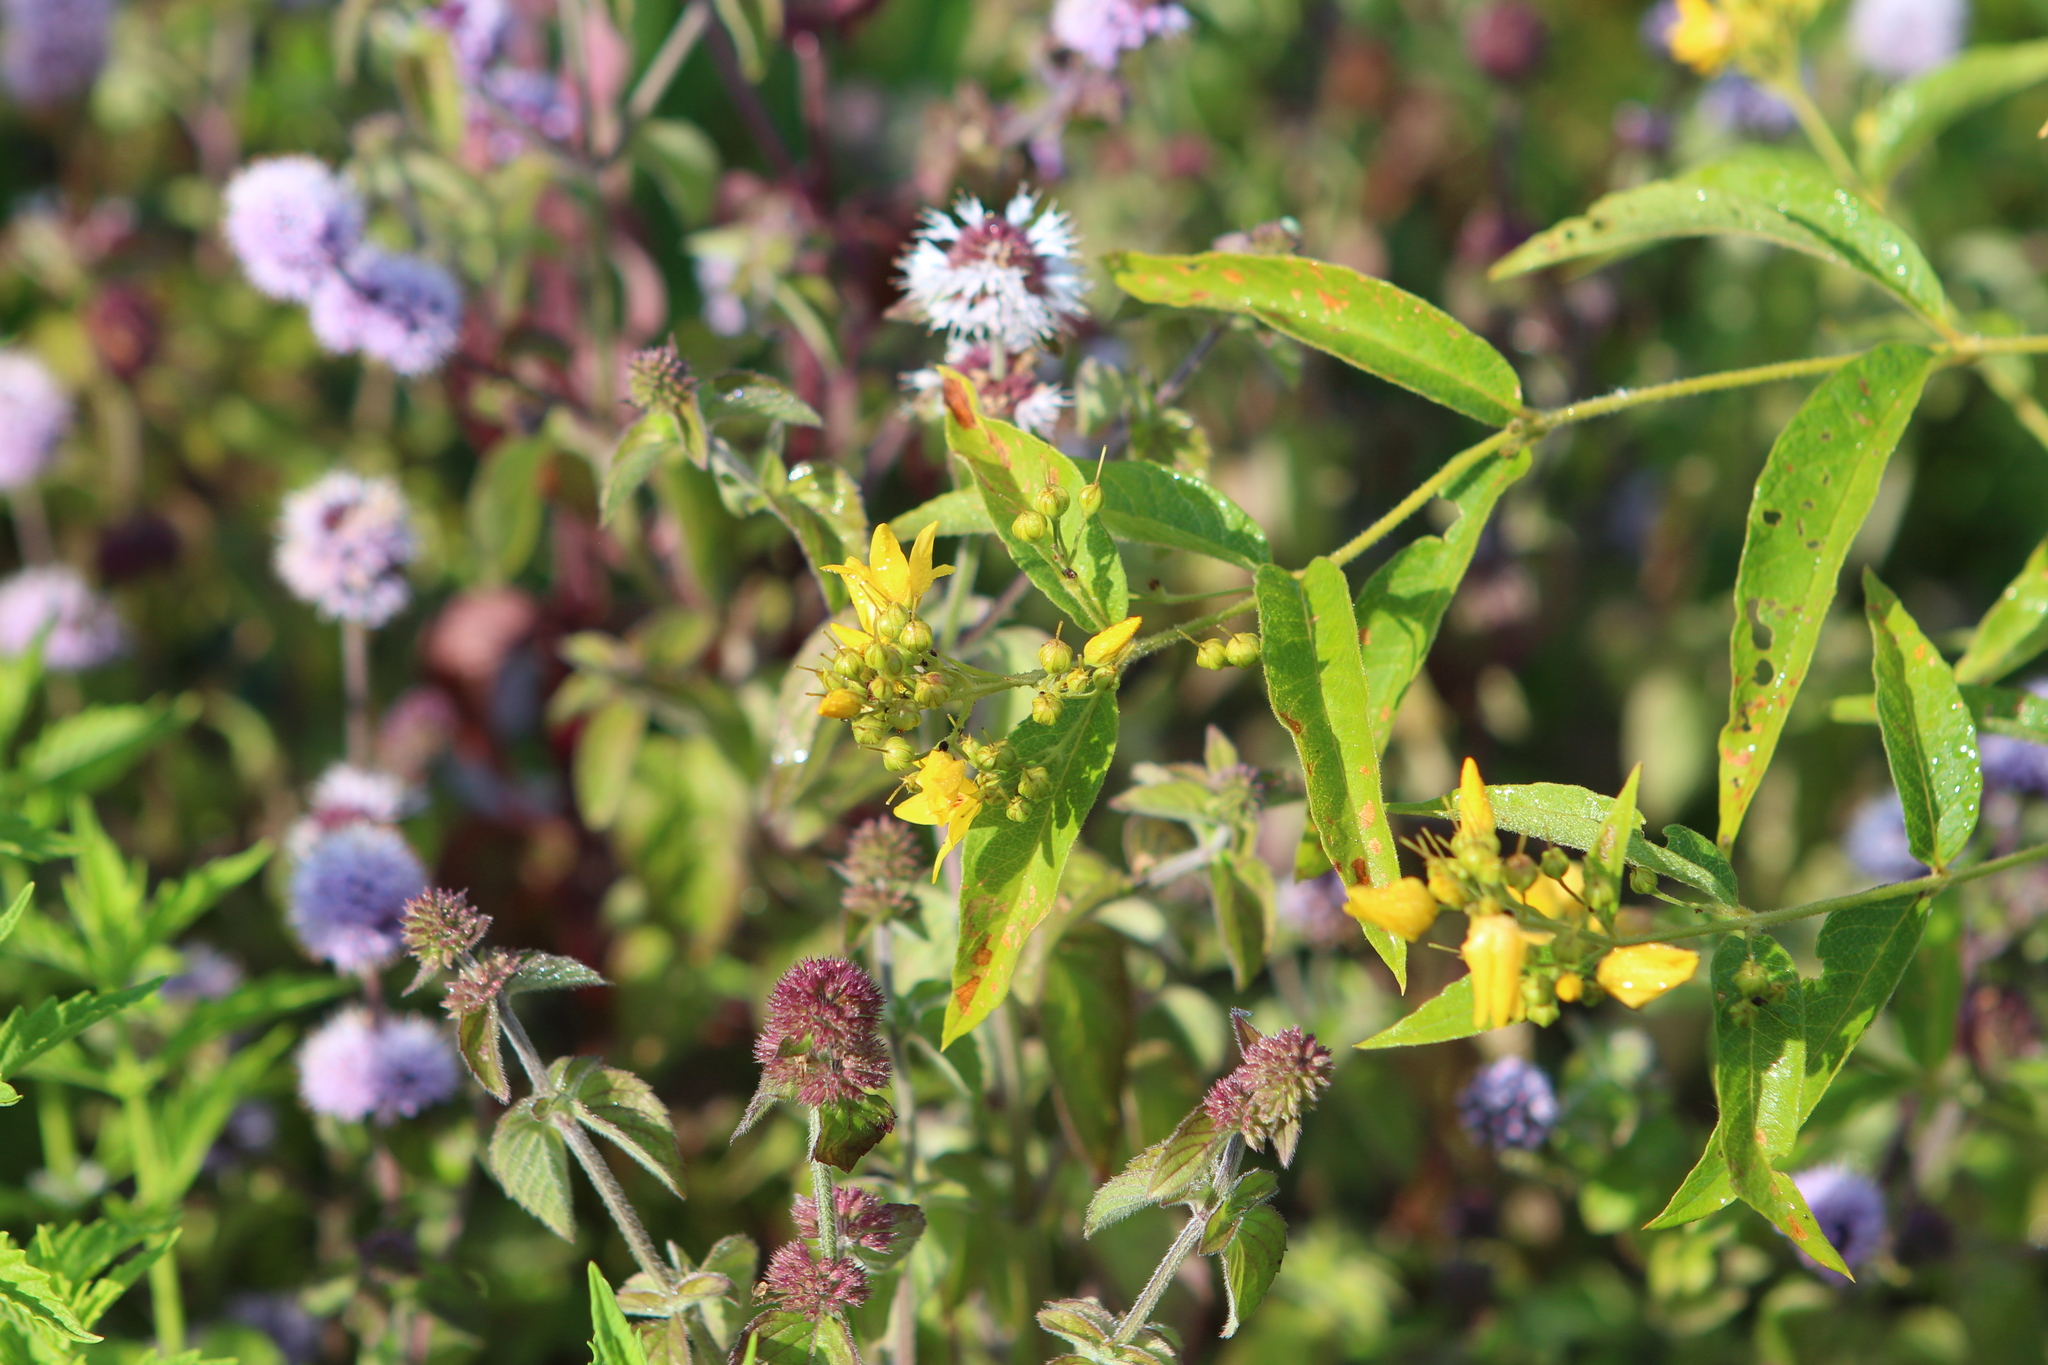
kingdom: Plantae
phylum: Tracheophyta
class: Magnoliopsida
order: Ericales
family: Primulaceae
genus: Lysimachia
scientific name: Lysimachia vulgaris
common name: Yellow loosestrife
